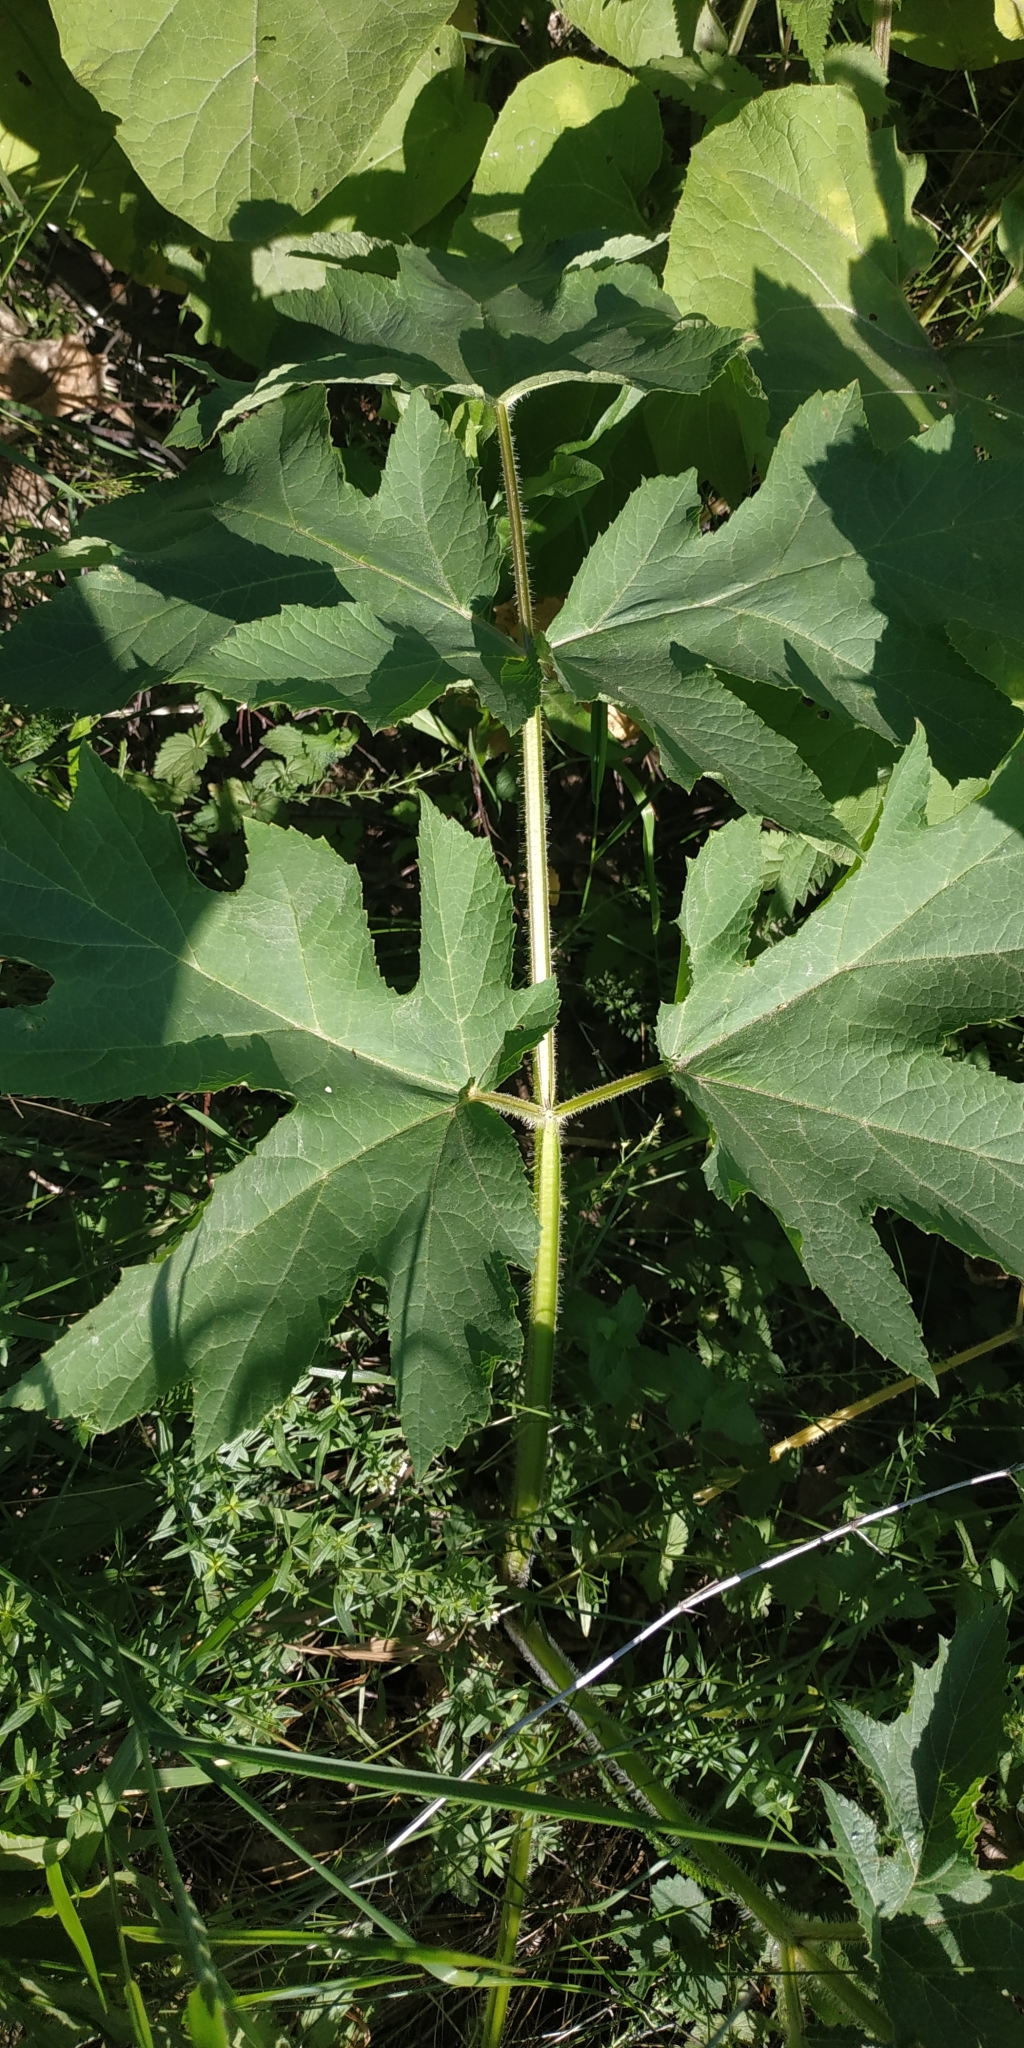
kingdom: Plantae
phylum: Tracheophyta
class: Magnoliopsida
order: Apiales
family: Apiaceae
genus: Heracleum
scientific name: Heracleum sphondylium
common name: Hogweed
